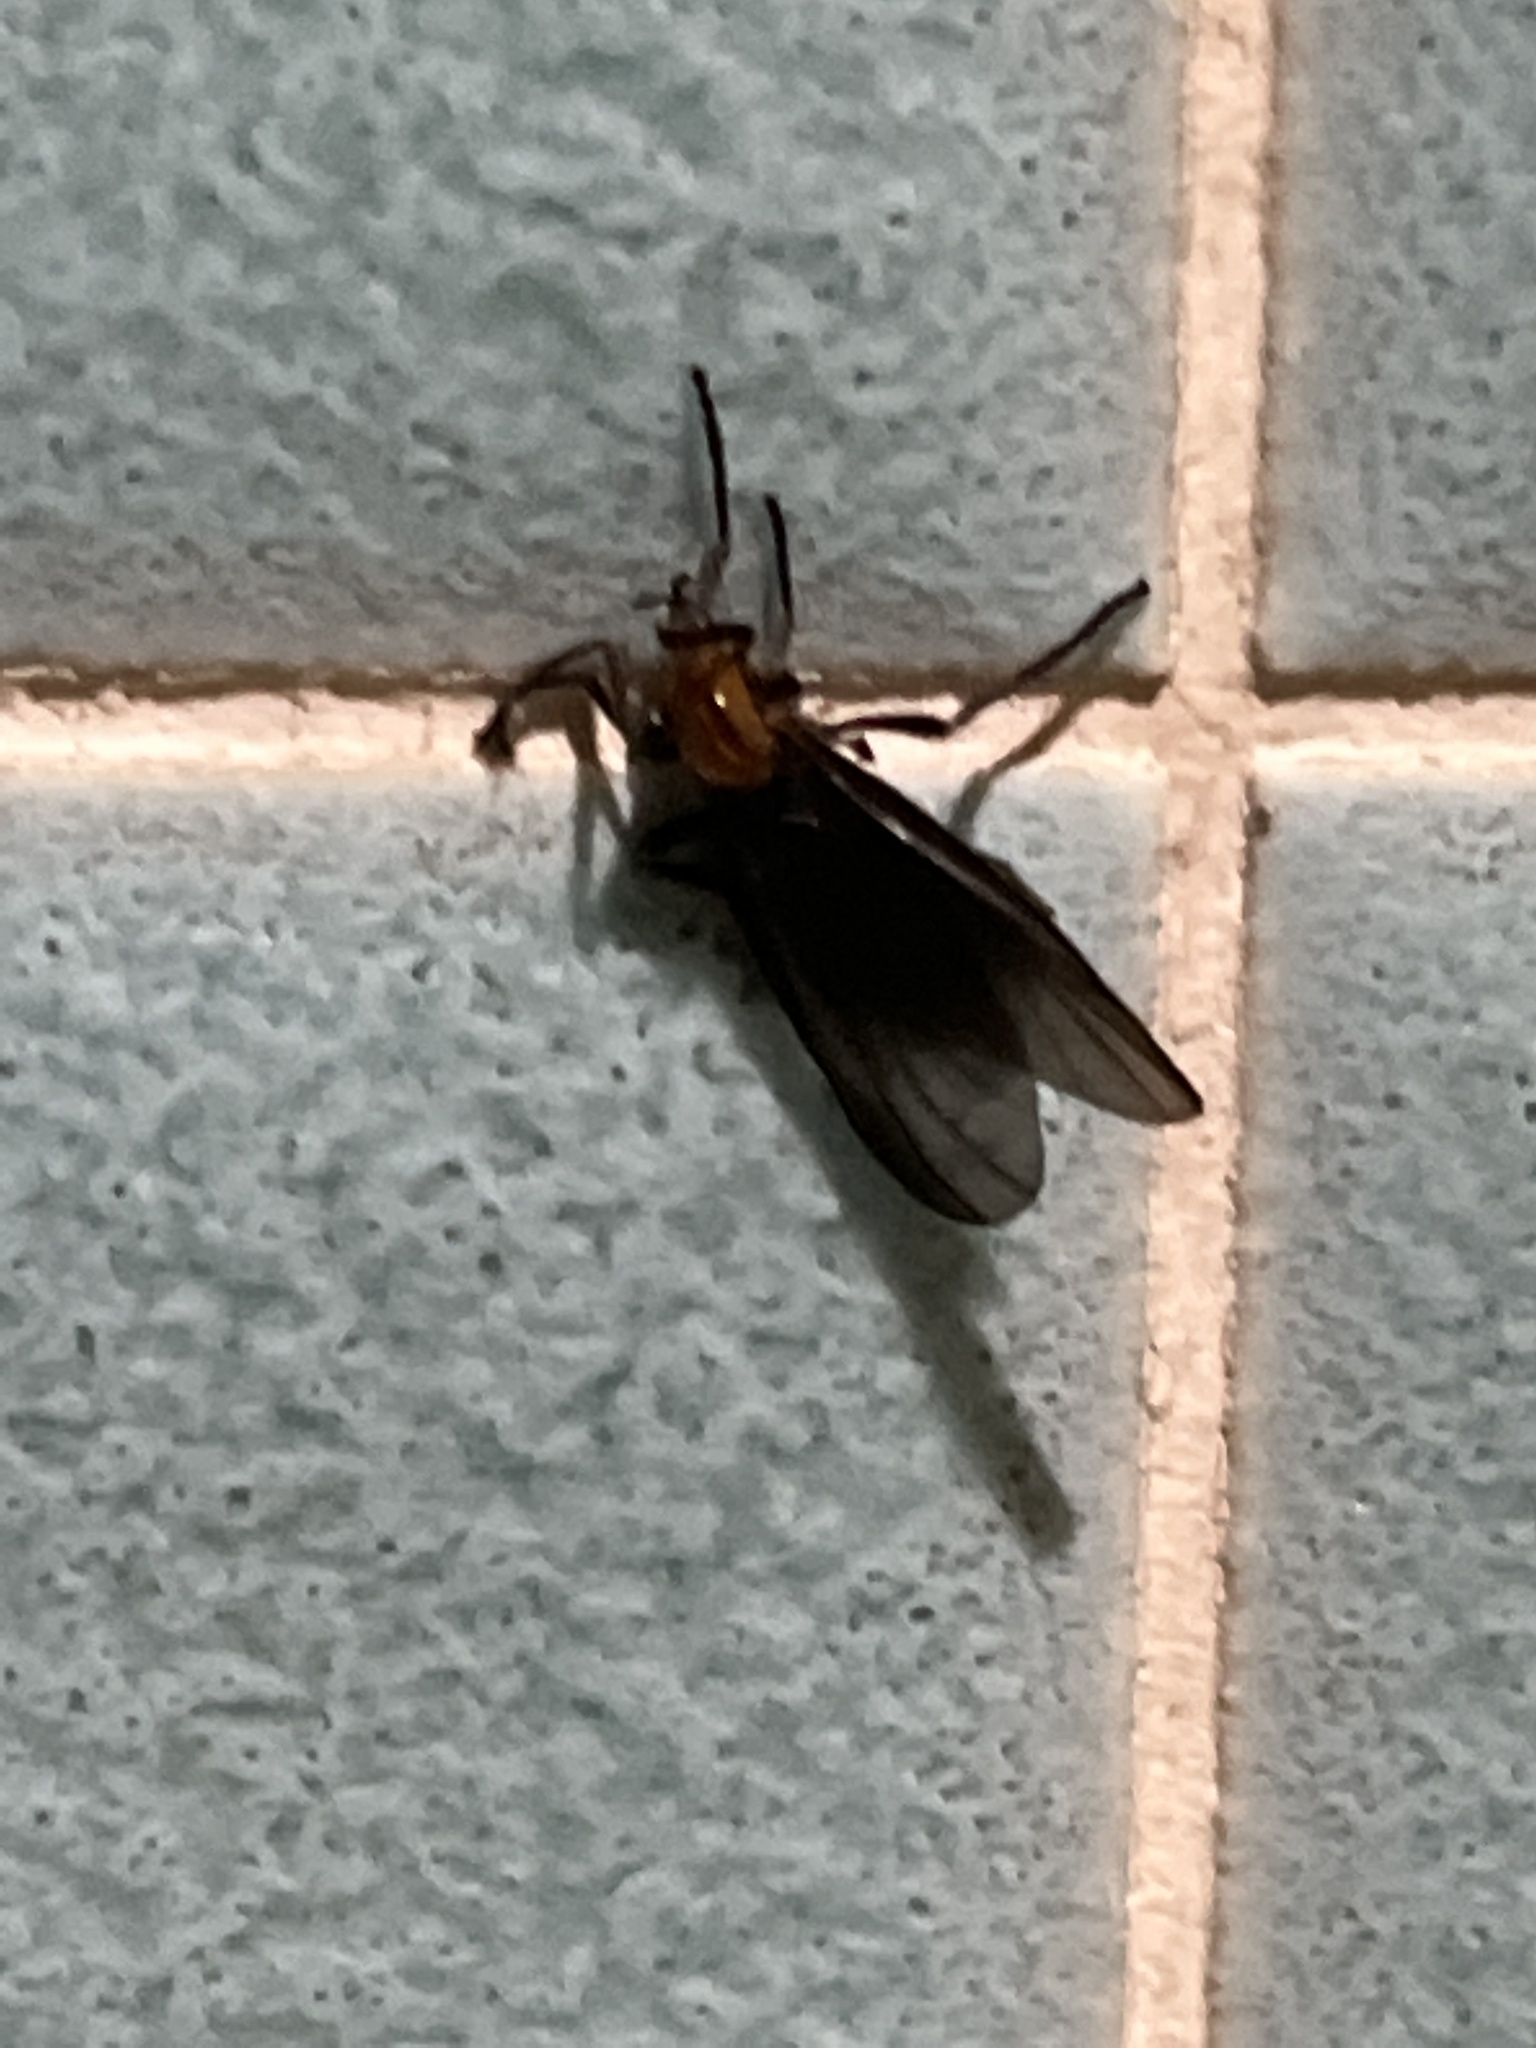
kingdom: Animalia
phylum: Arthropoda
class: Insecta
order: Diptera
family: Bibionidae
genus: Plecia
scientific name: Plecia nearctica
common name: March fly
